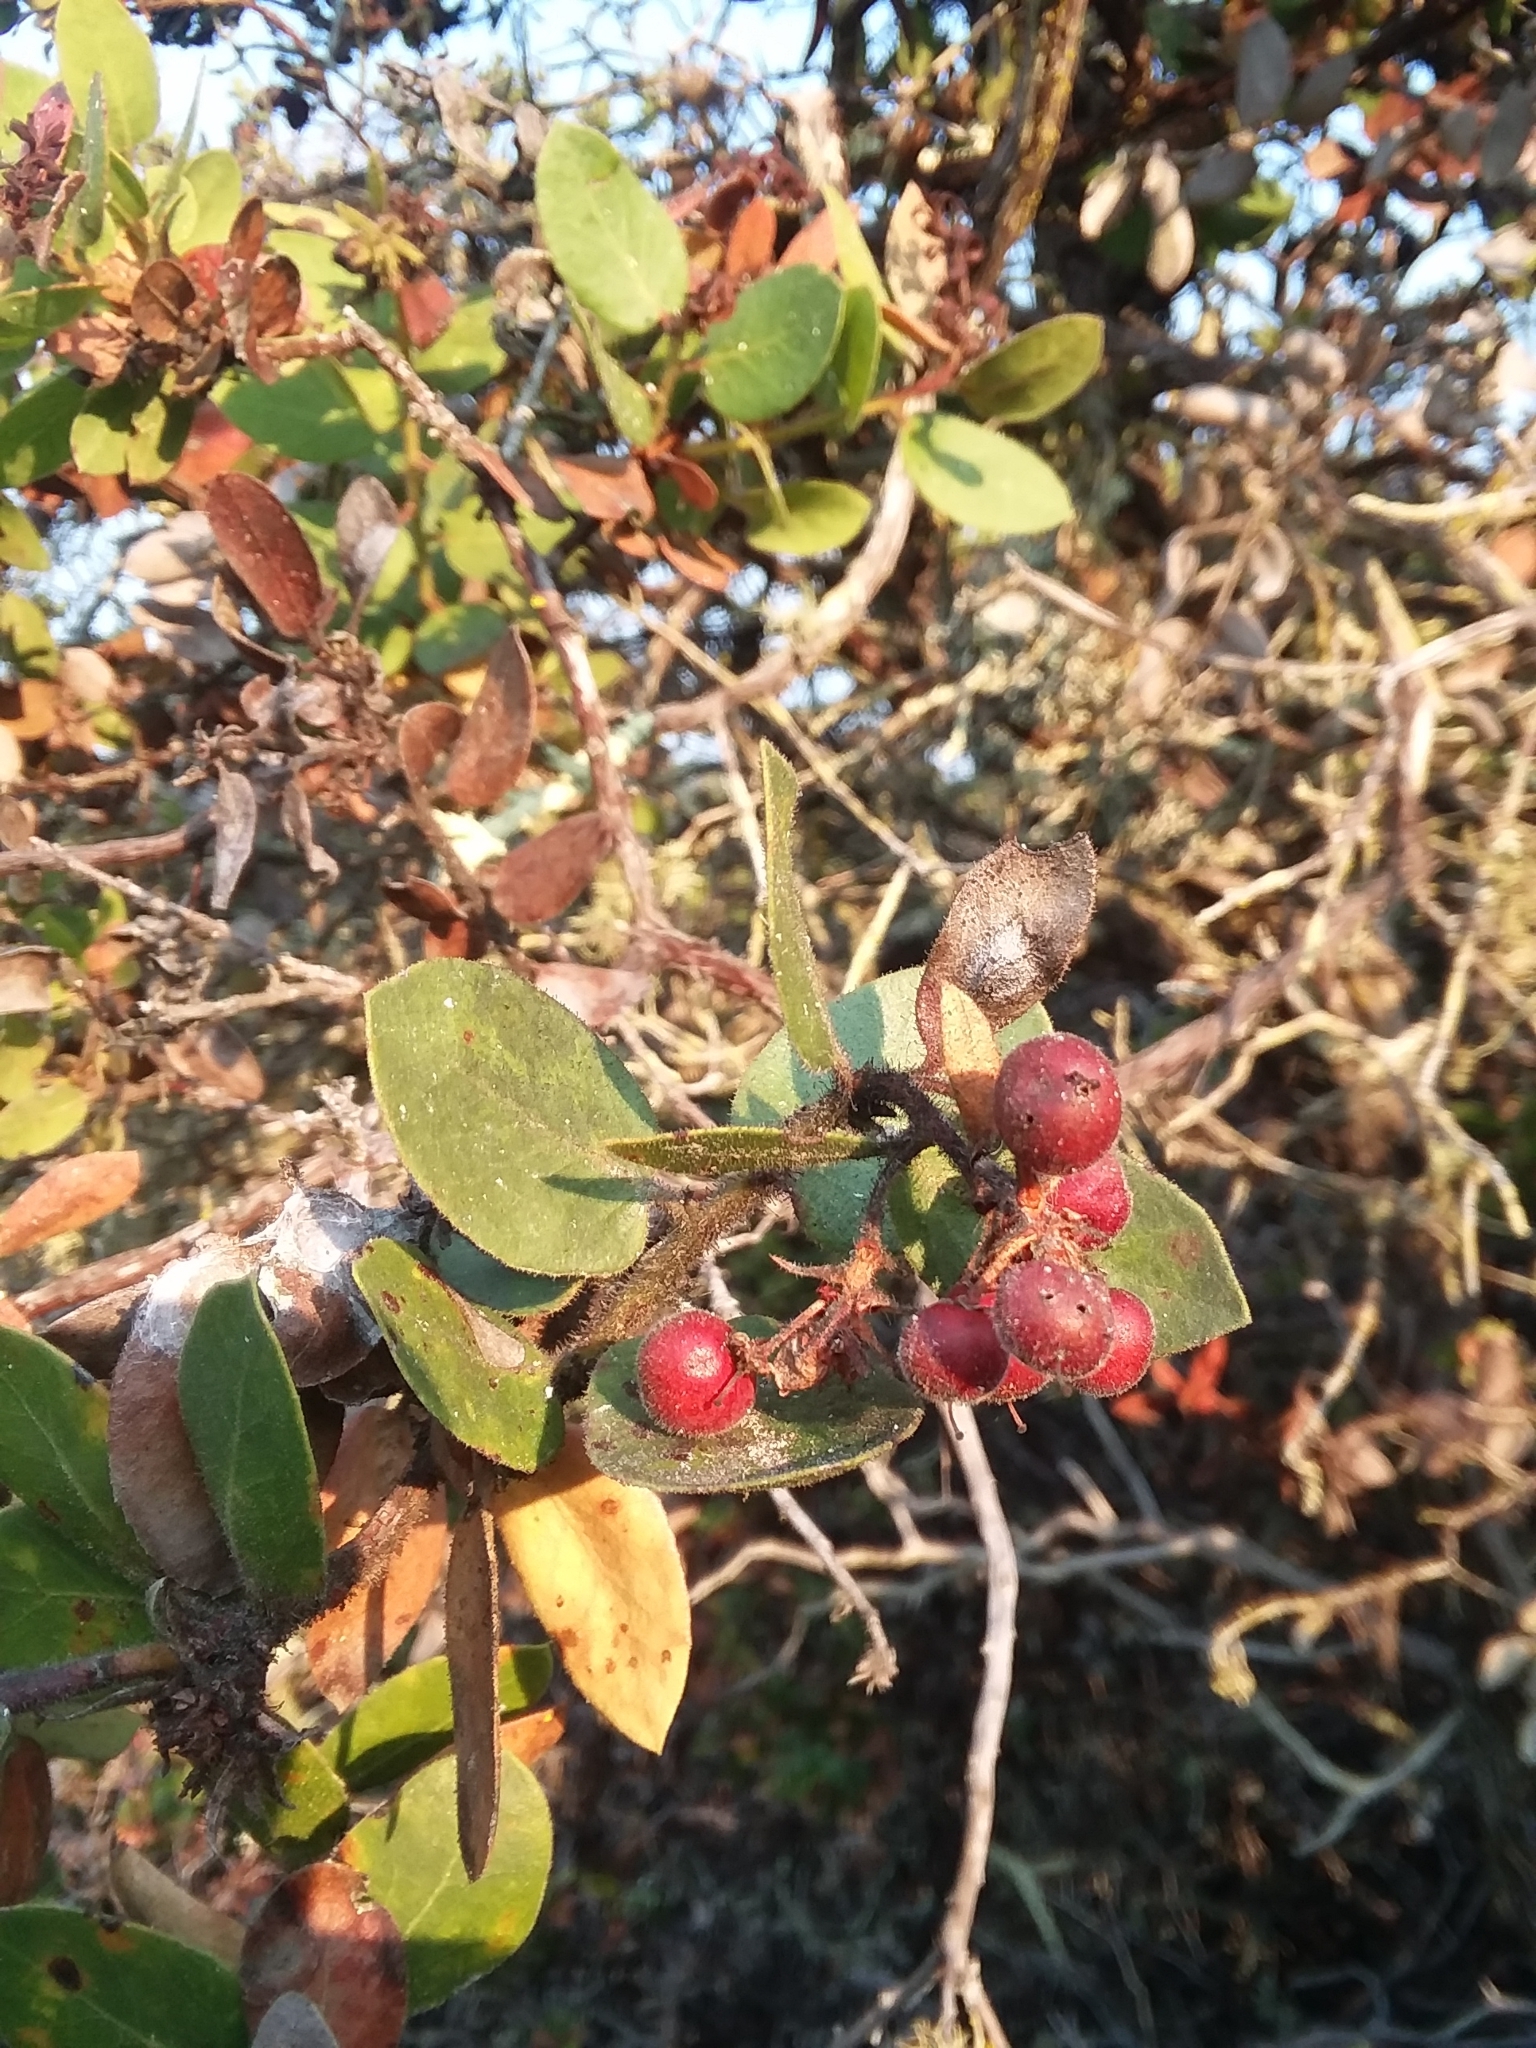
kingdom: Plantae
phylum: Tracheophyta
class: Magnoliopsida
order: Ericales
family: Ericaceae
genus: Arctostaphylos
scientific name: Arctostaphylos tomentosa
